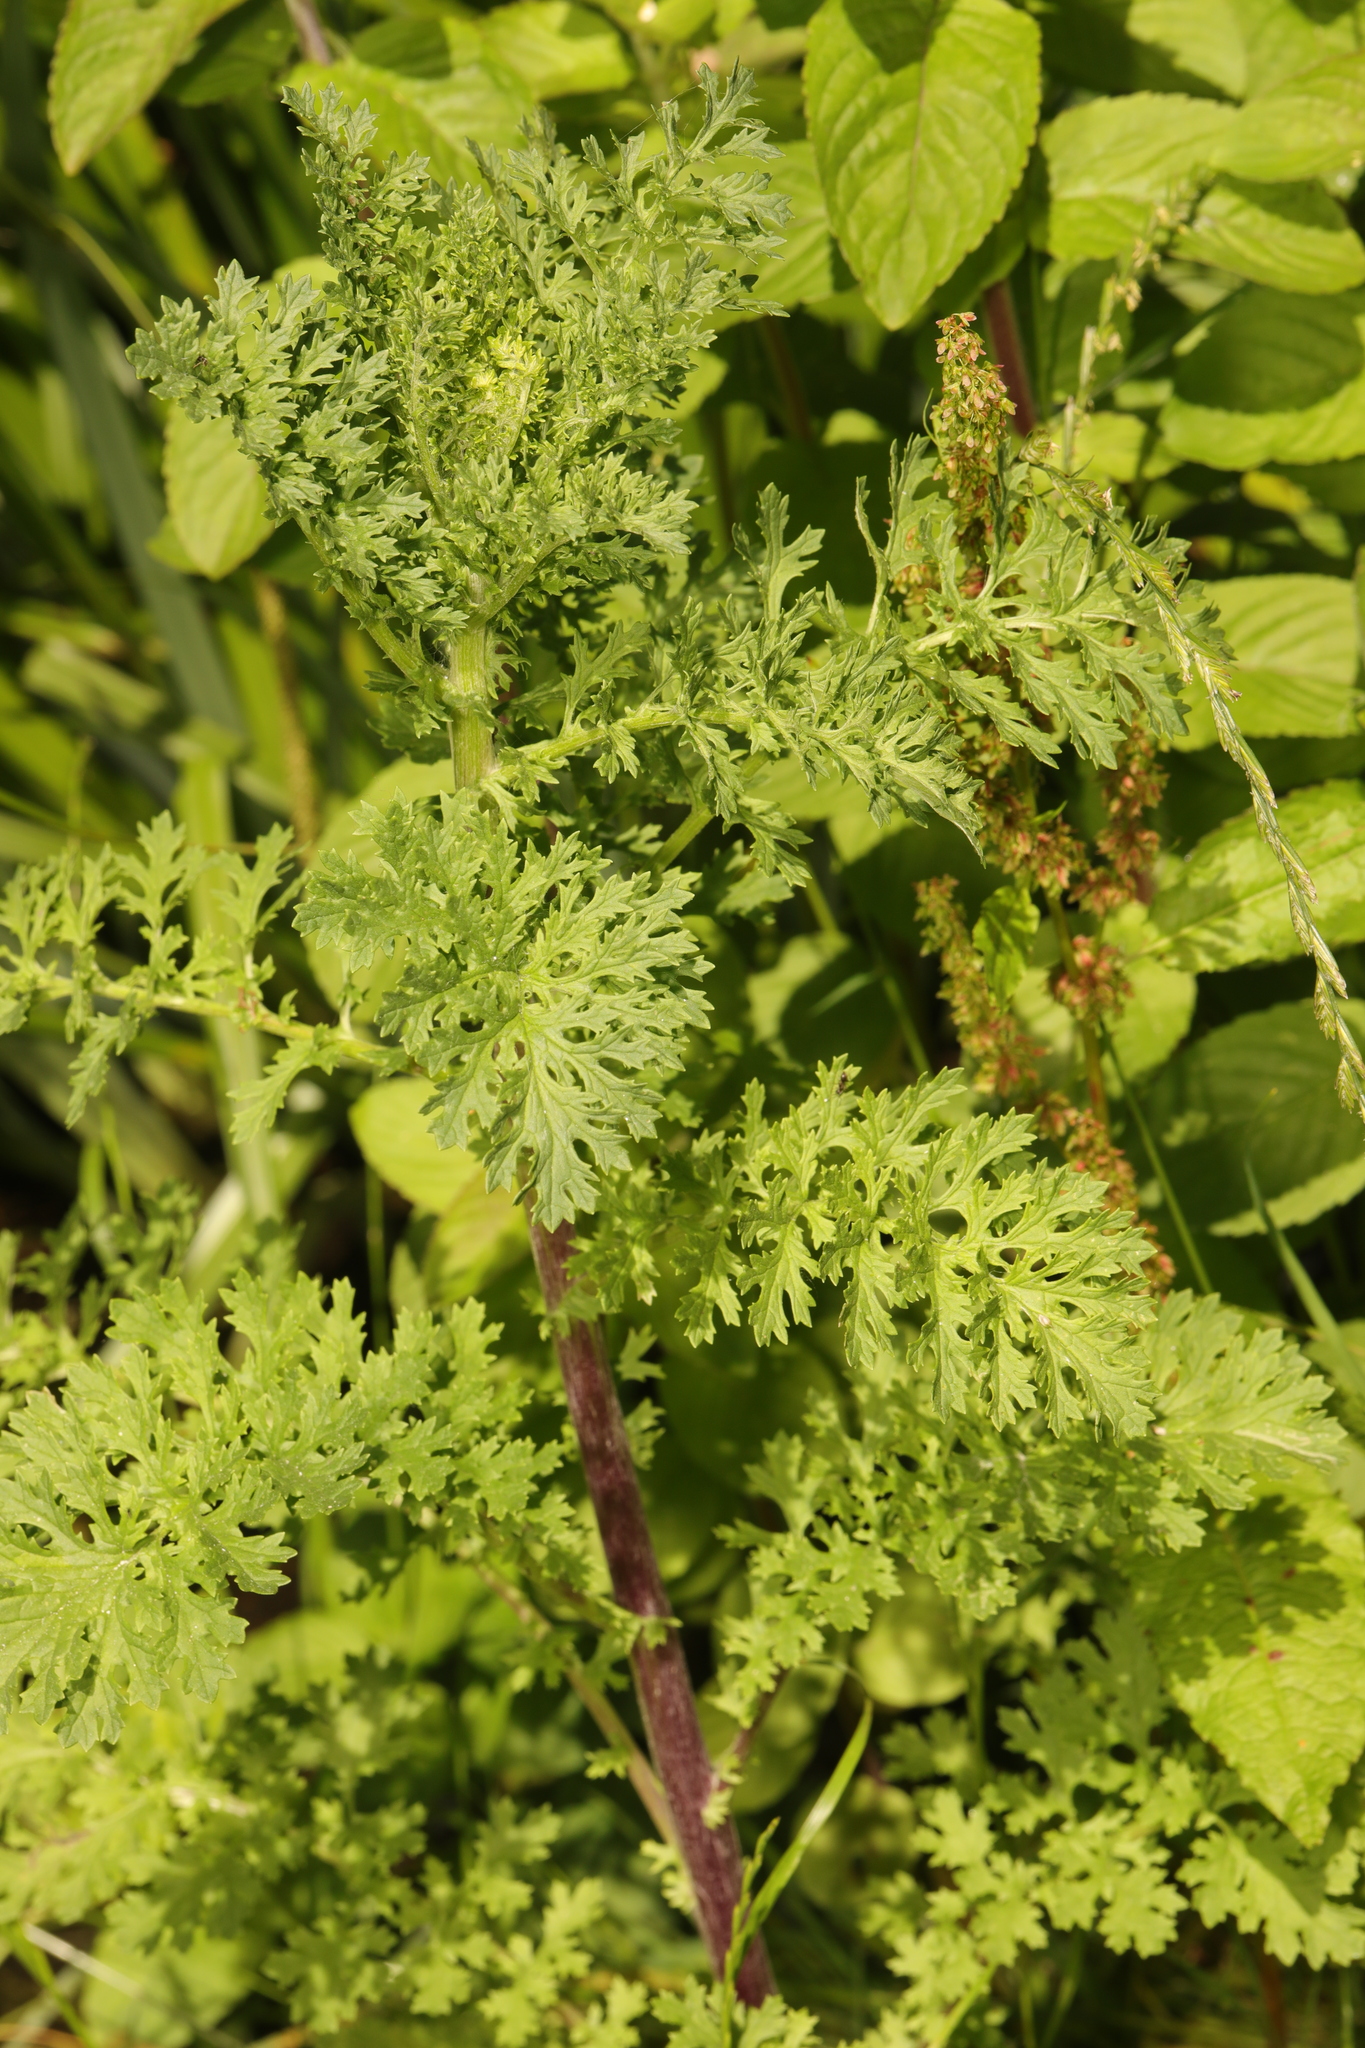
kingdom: Plantae
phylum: Tracheophyta
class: Magnoliopsida
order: Asterales
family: Asteraceae
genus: Jacobaea
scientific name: Jacobaea vulgaris
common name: Stinking willie
